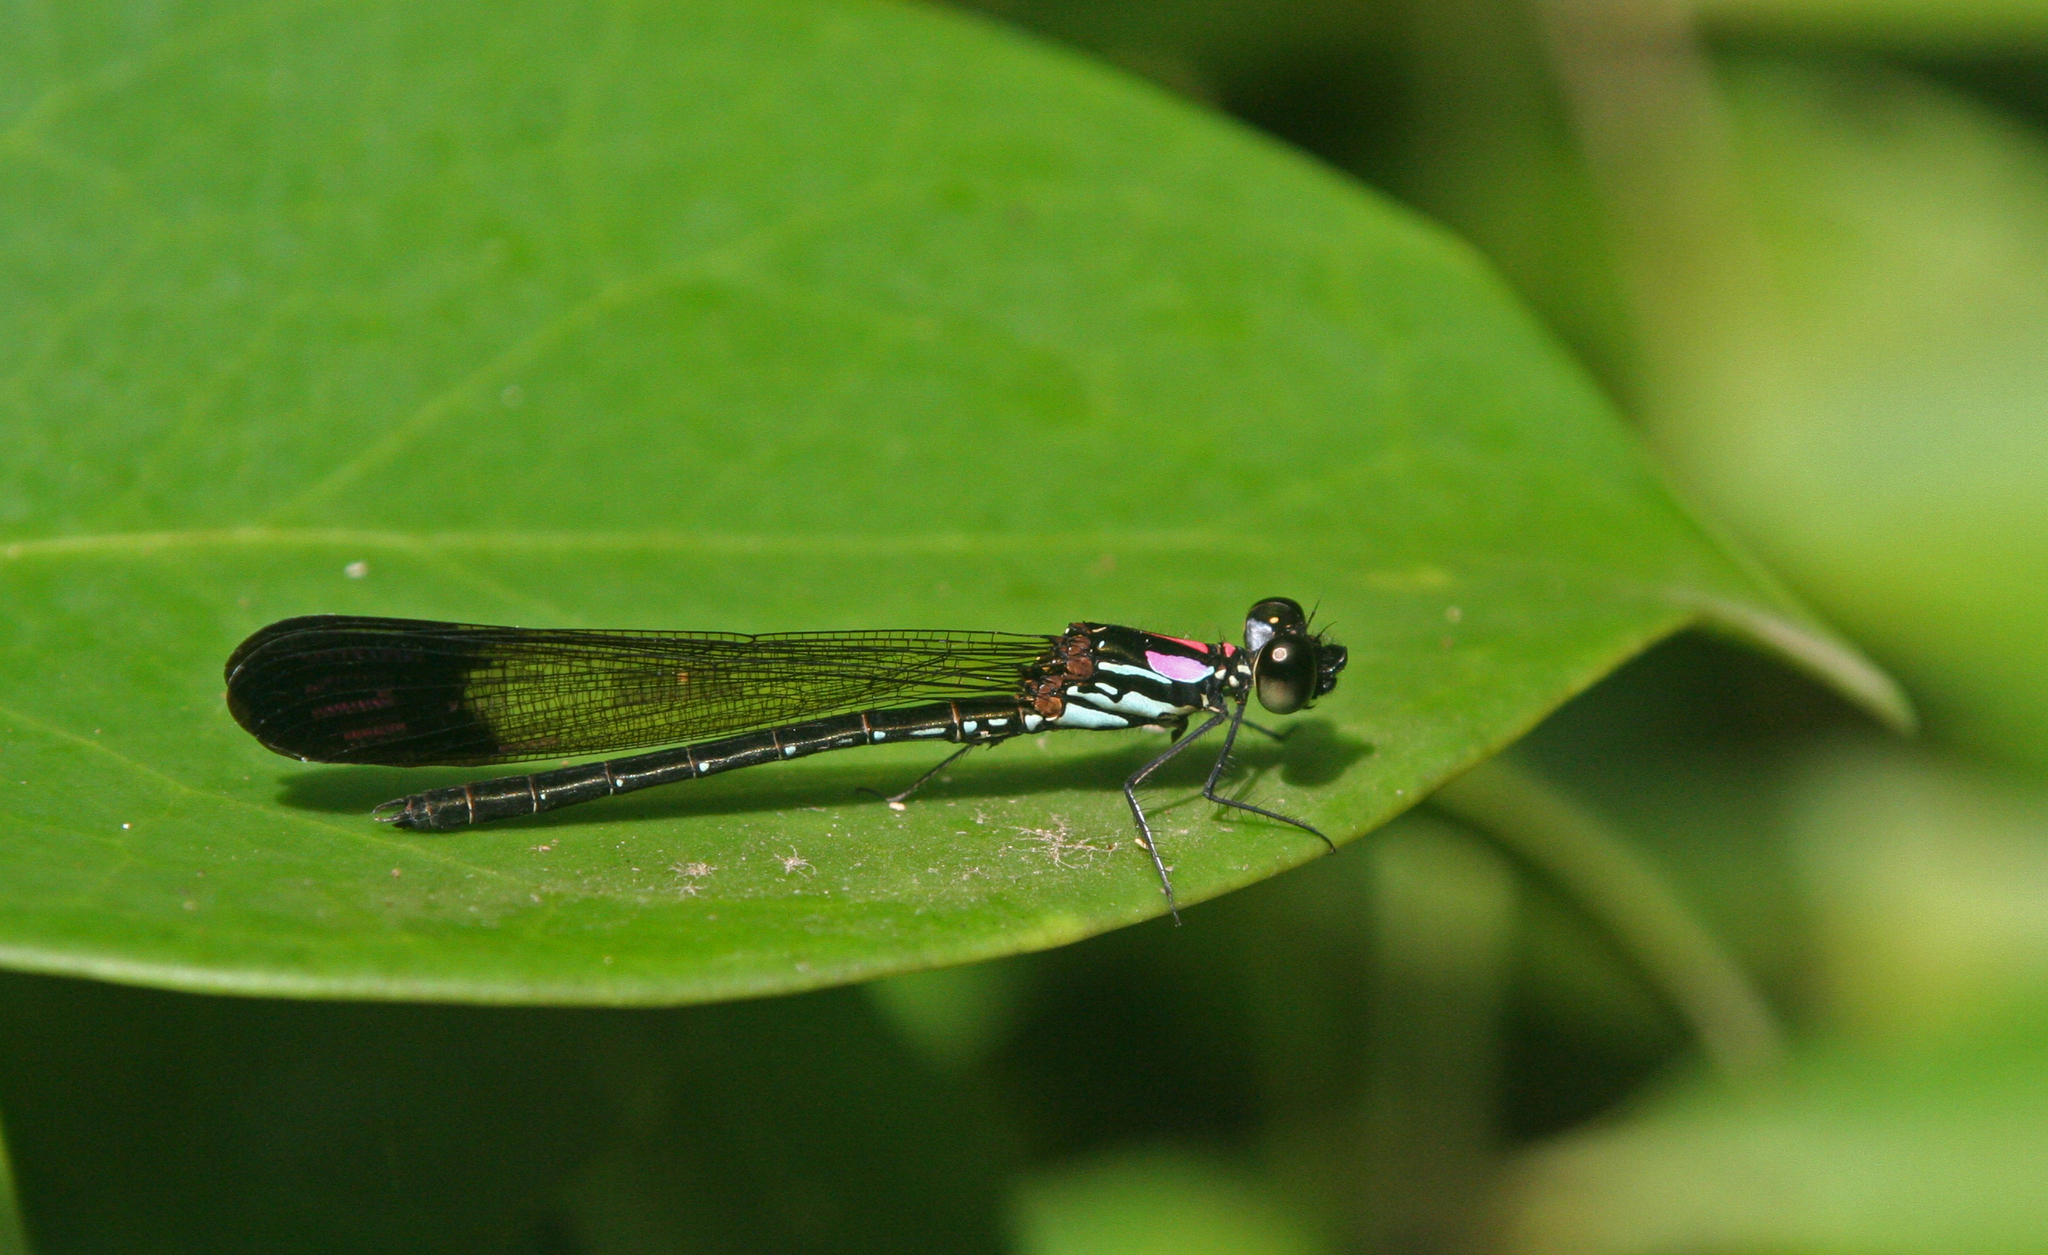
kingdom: Animalia
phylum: Arthropoda
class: Insecta
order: Odonata
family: Chlorocyphidae
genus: Heliocypha
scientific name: Heliocypha biforata
